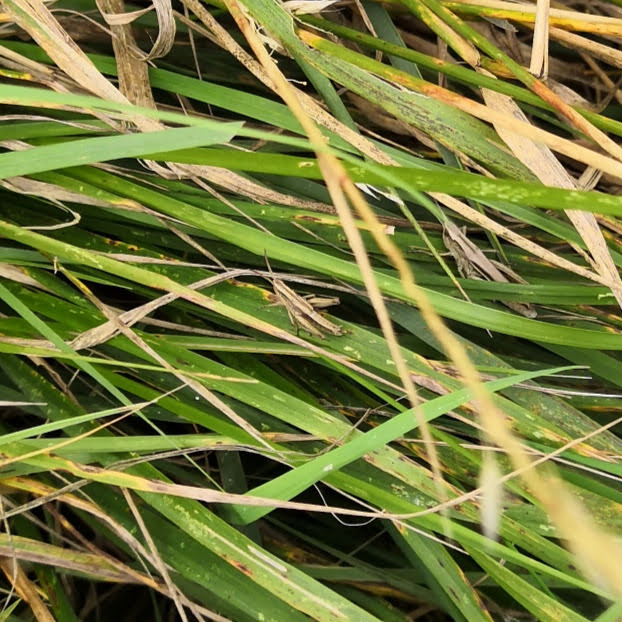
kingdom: Animalia
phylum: Arthropoda
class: Insecta
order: Orthoptera
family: Acrididae
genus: Chorthippus
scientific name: Chorthippus albomarginatus
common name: Lesser marsh grasshopper
